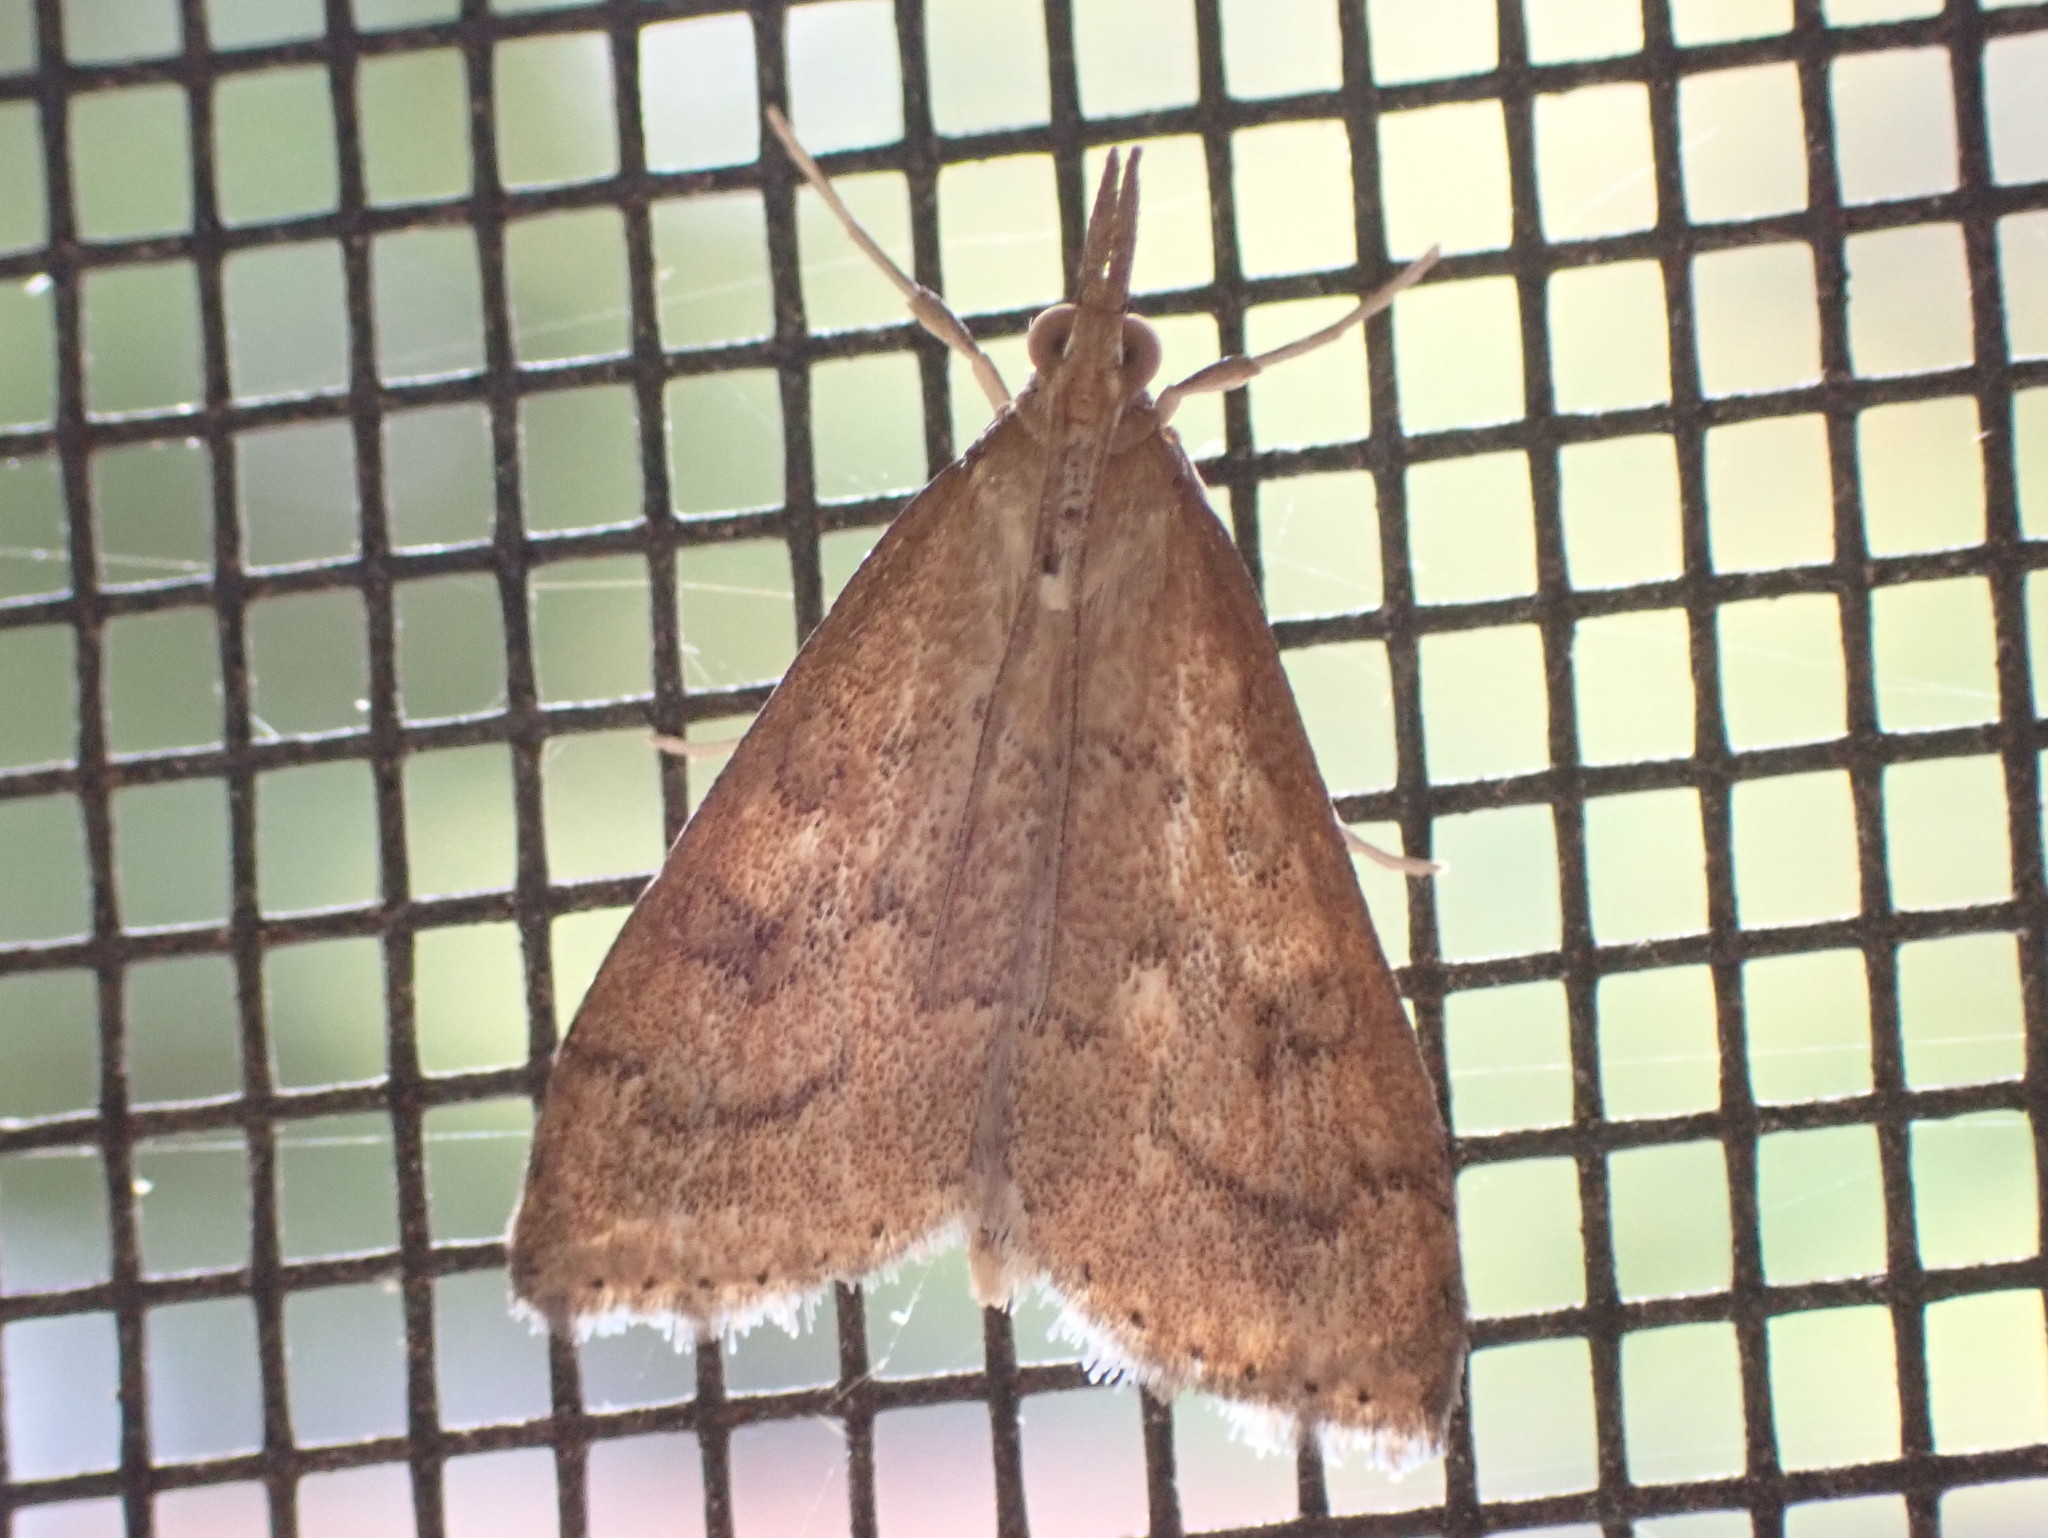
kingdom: Animalia
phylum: Arthropoda
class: Insecta
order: Lepidoptera
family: Crambidae
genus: Udea
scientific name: Udea rubigalis
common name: Celery leaftier moth
